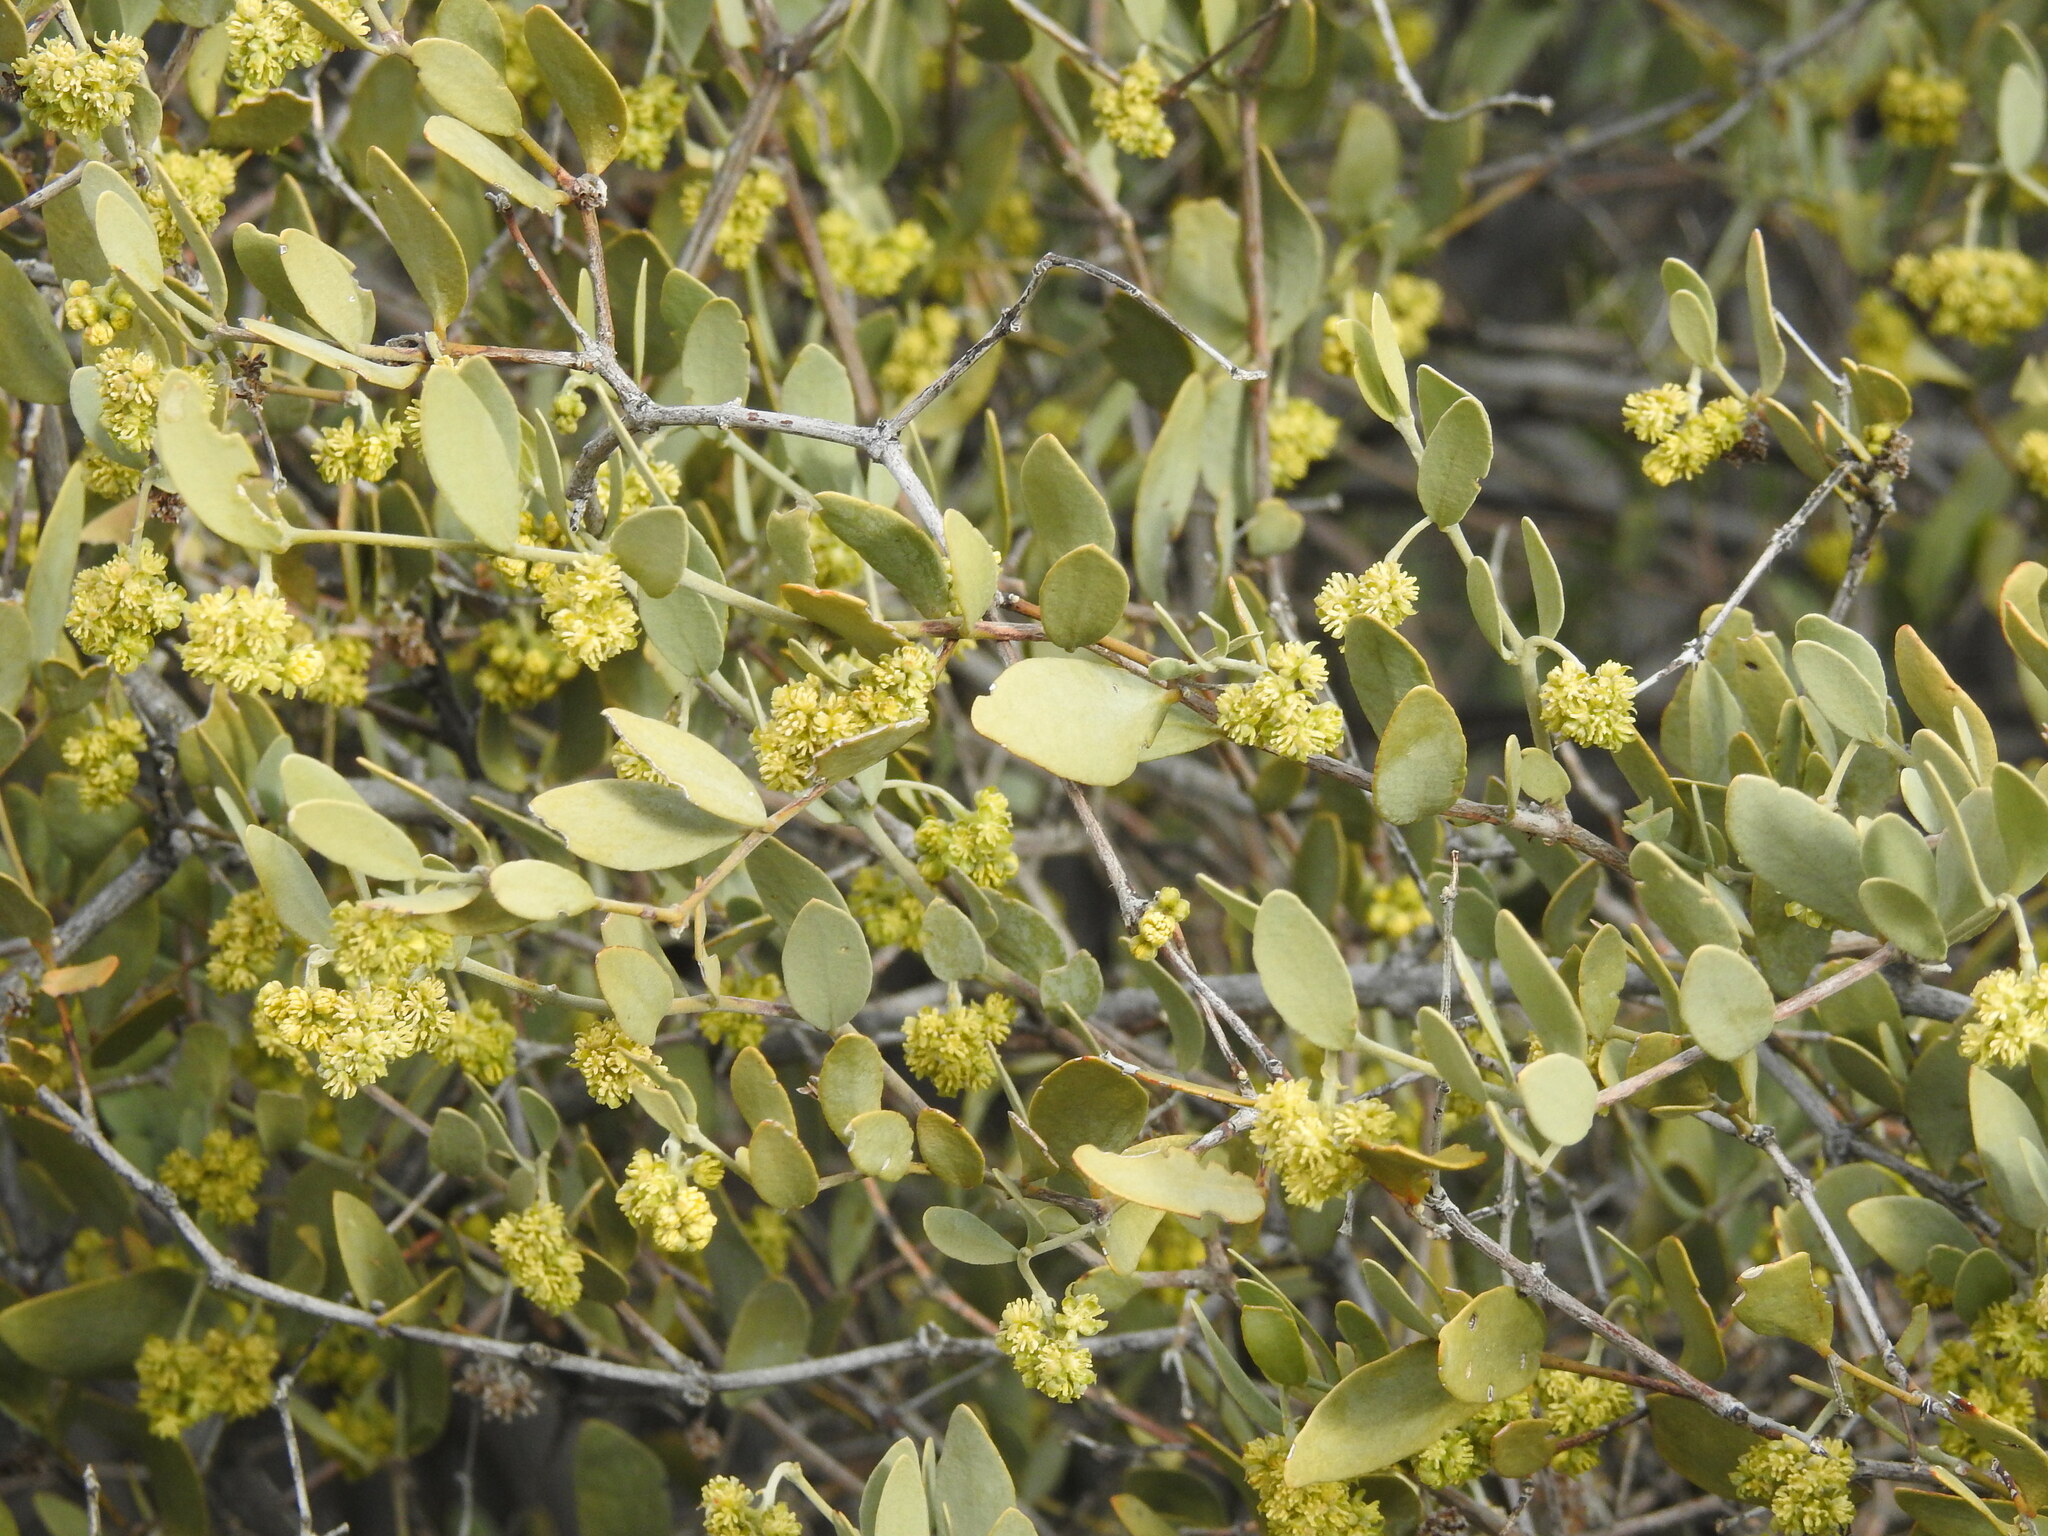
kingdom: Plantae
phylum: Tracheophyta
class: Magnoliopsida
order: Caryophyllales
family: Simmondsiaceae
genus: Simmondsia
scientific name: Simmondsia chinensis
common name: Jojoba
